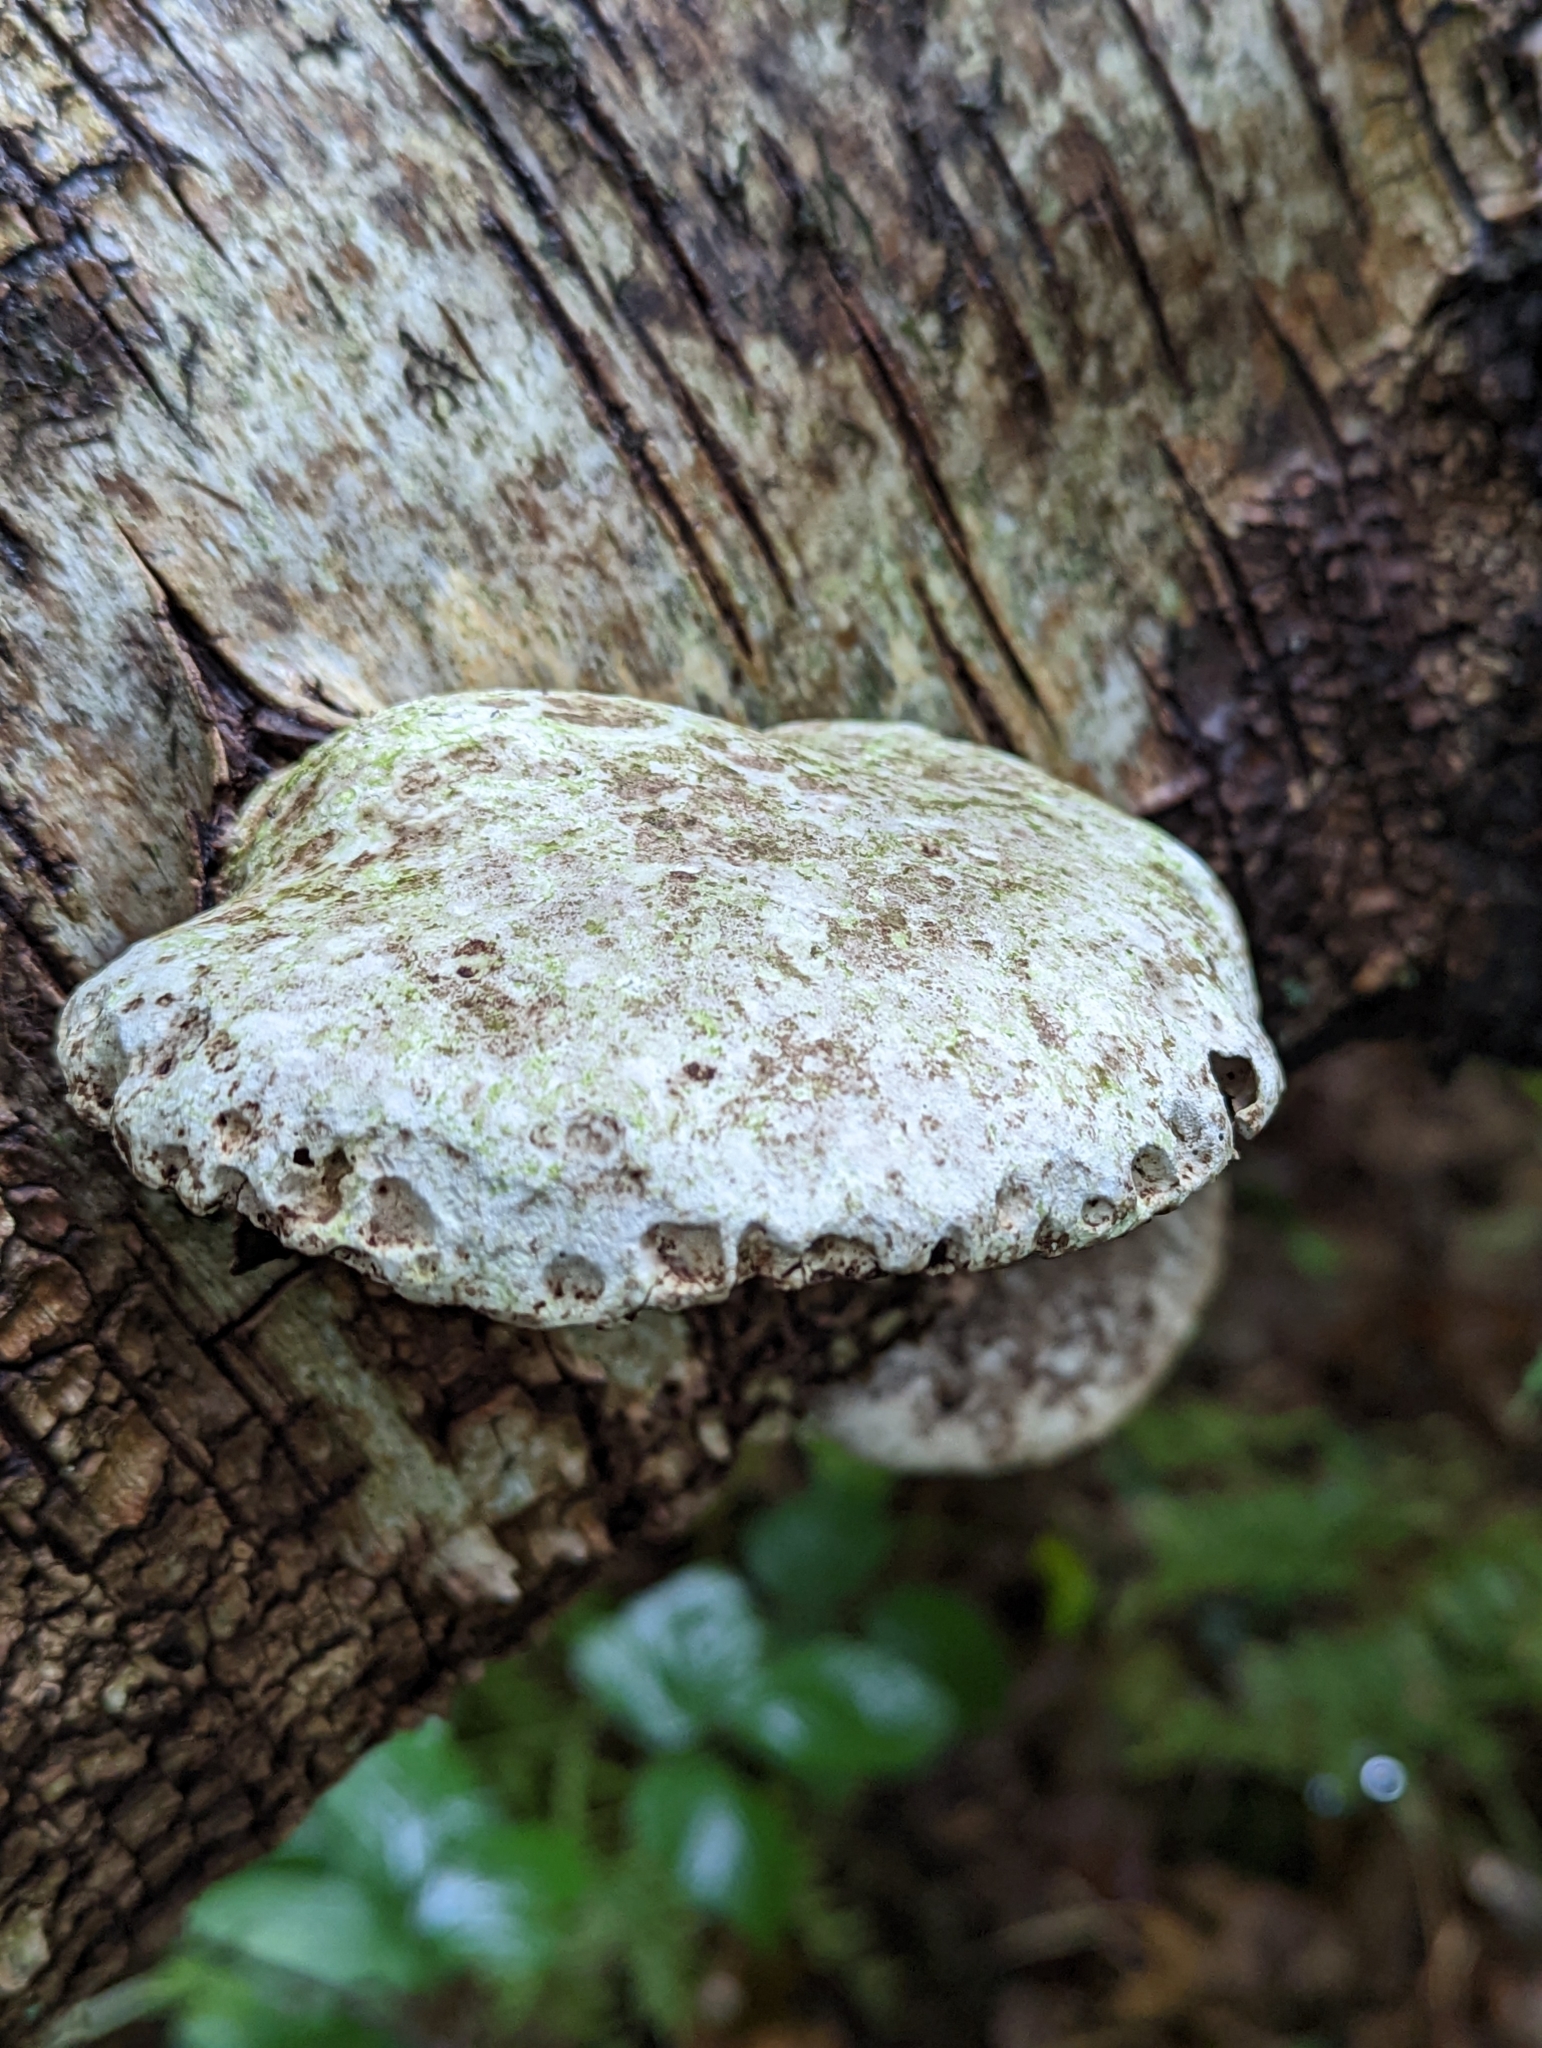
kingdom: Fungi
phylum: Basidiomycota
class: Agaricomycetes
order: Polyporales
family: Fomitopsidaceae
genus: Fomitopsis
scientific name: Fomitopsis betulina
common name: Birch polypore
